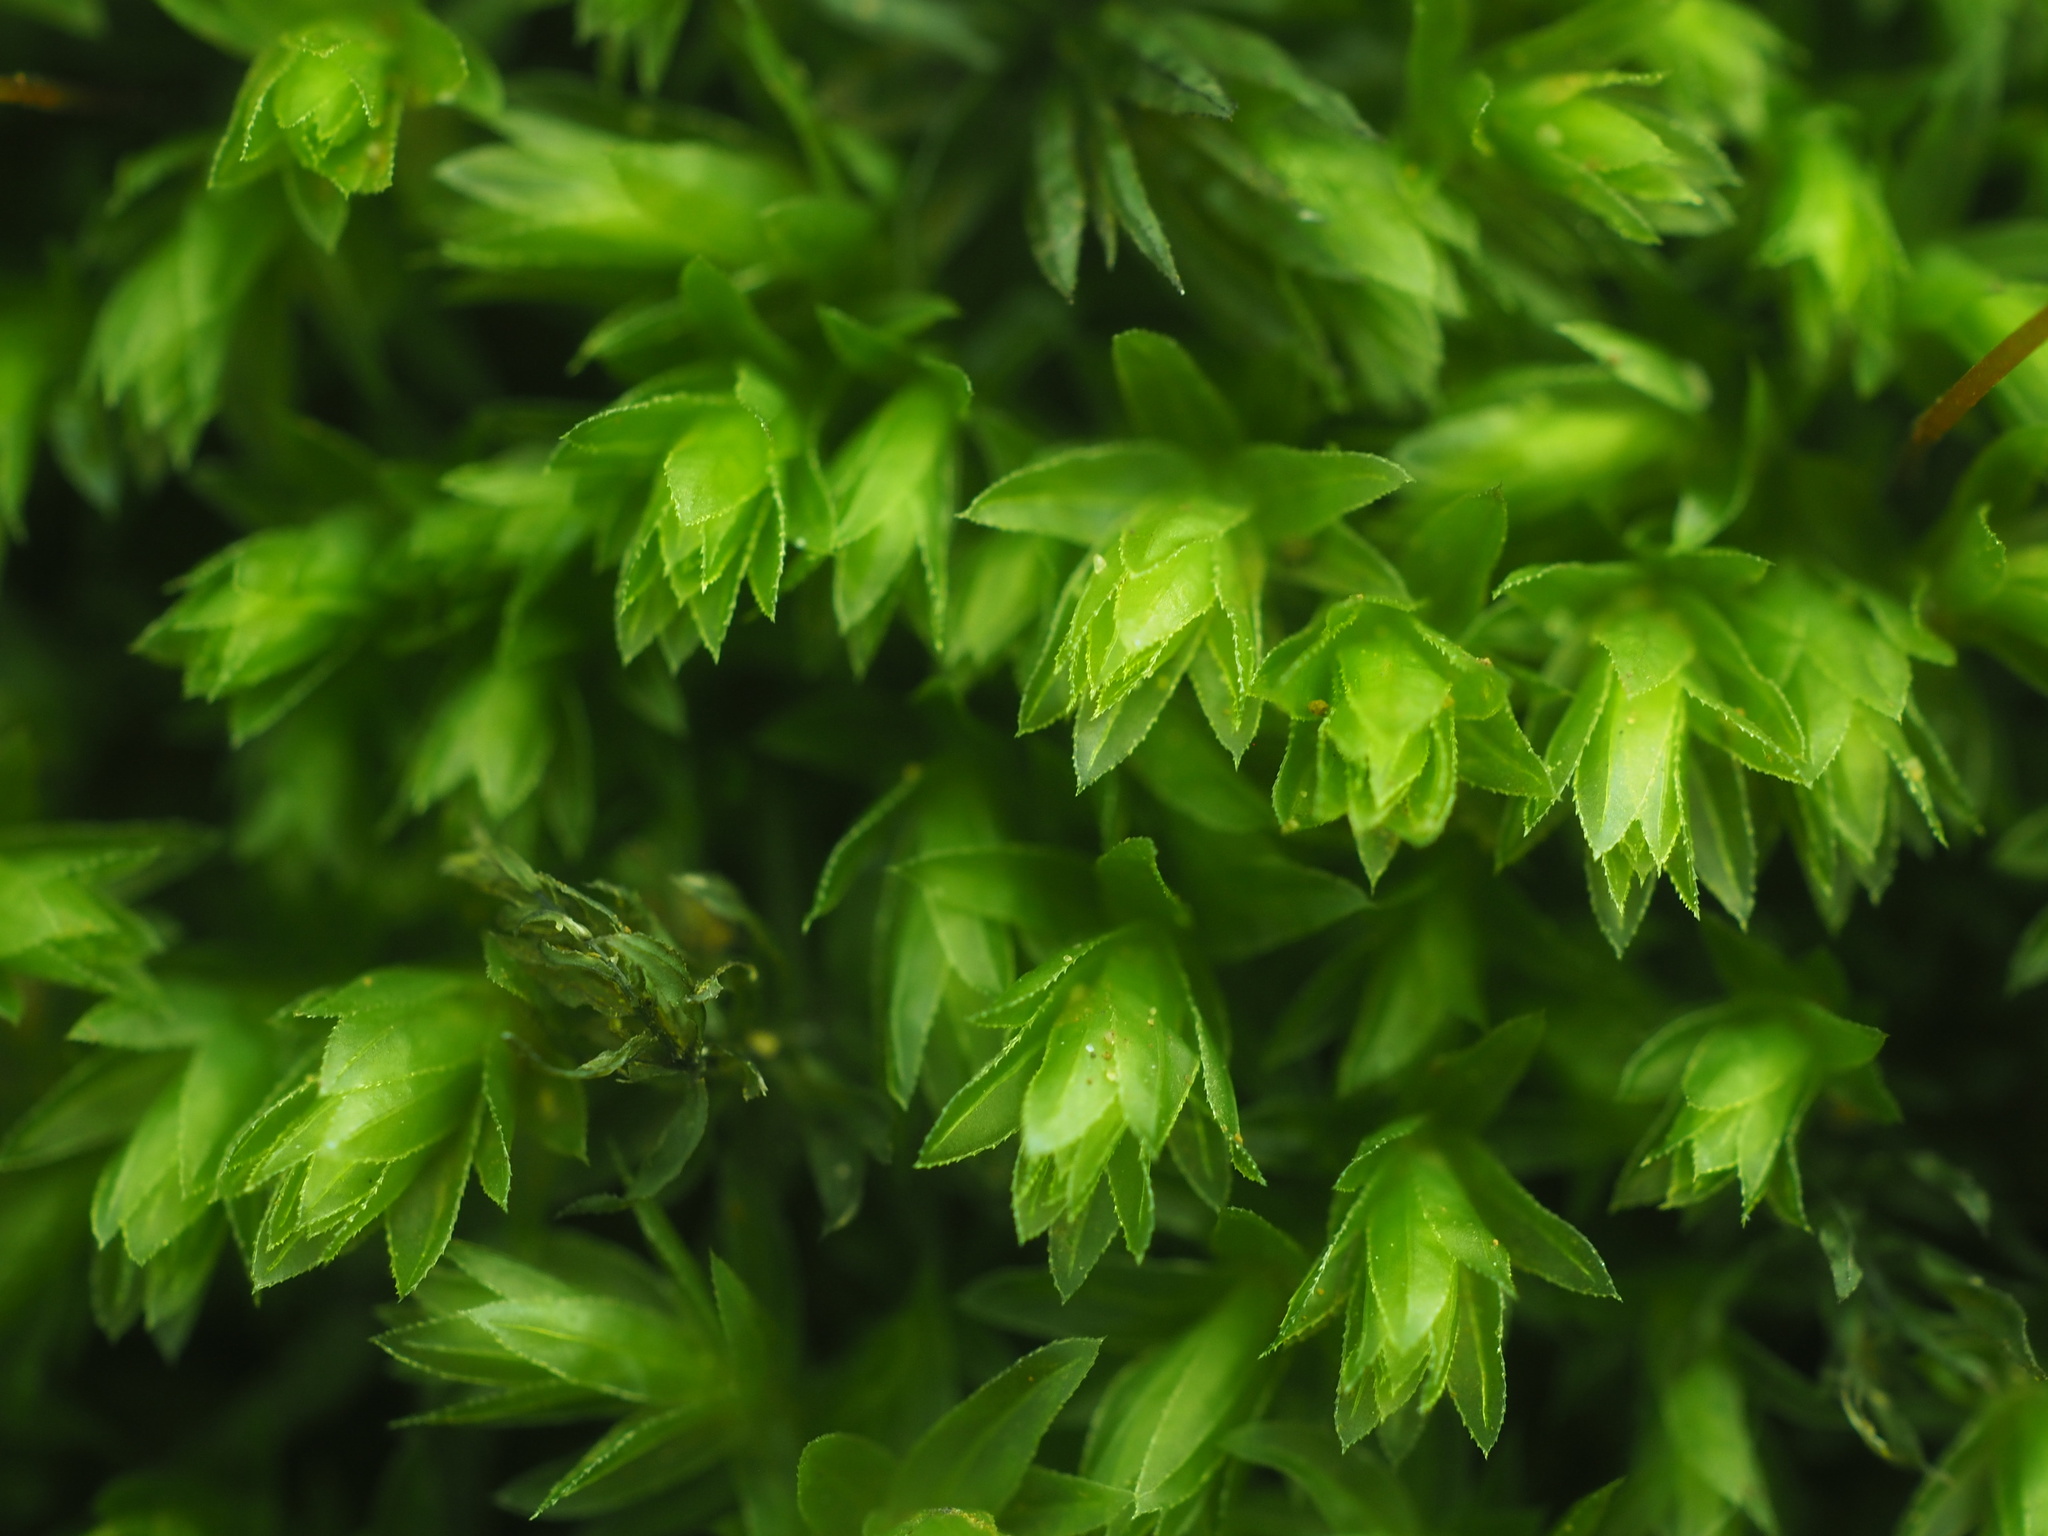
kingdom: Plantae
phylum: Bryophyta
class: Bryopsida
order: Bryales
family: Mniaceae
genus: Mnium
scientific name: Mnium hornum
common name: Swan's-neck leafy moss
